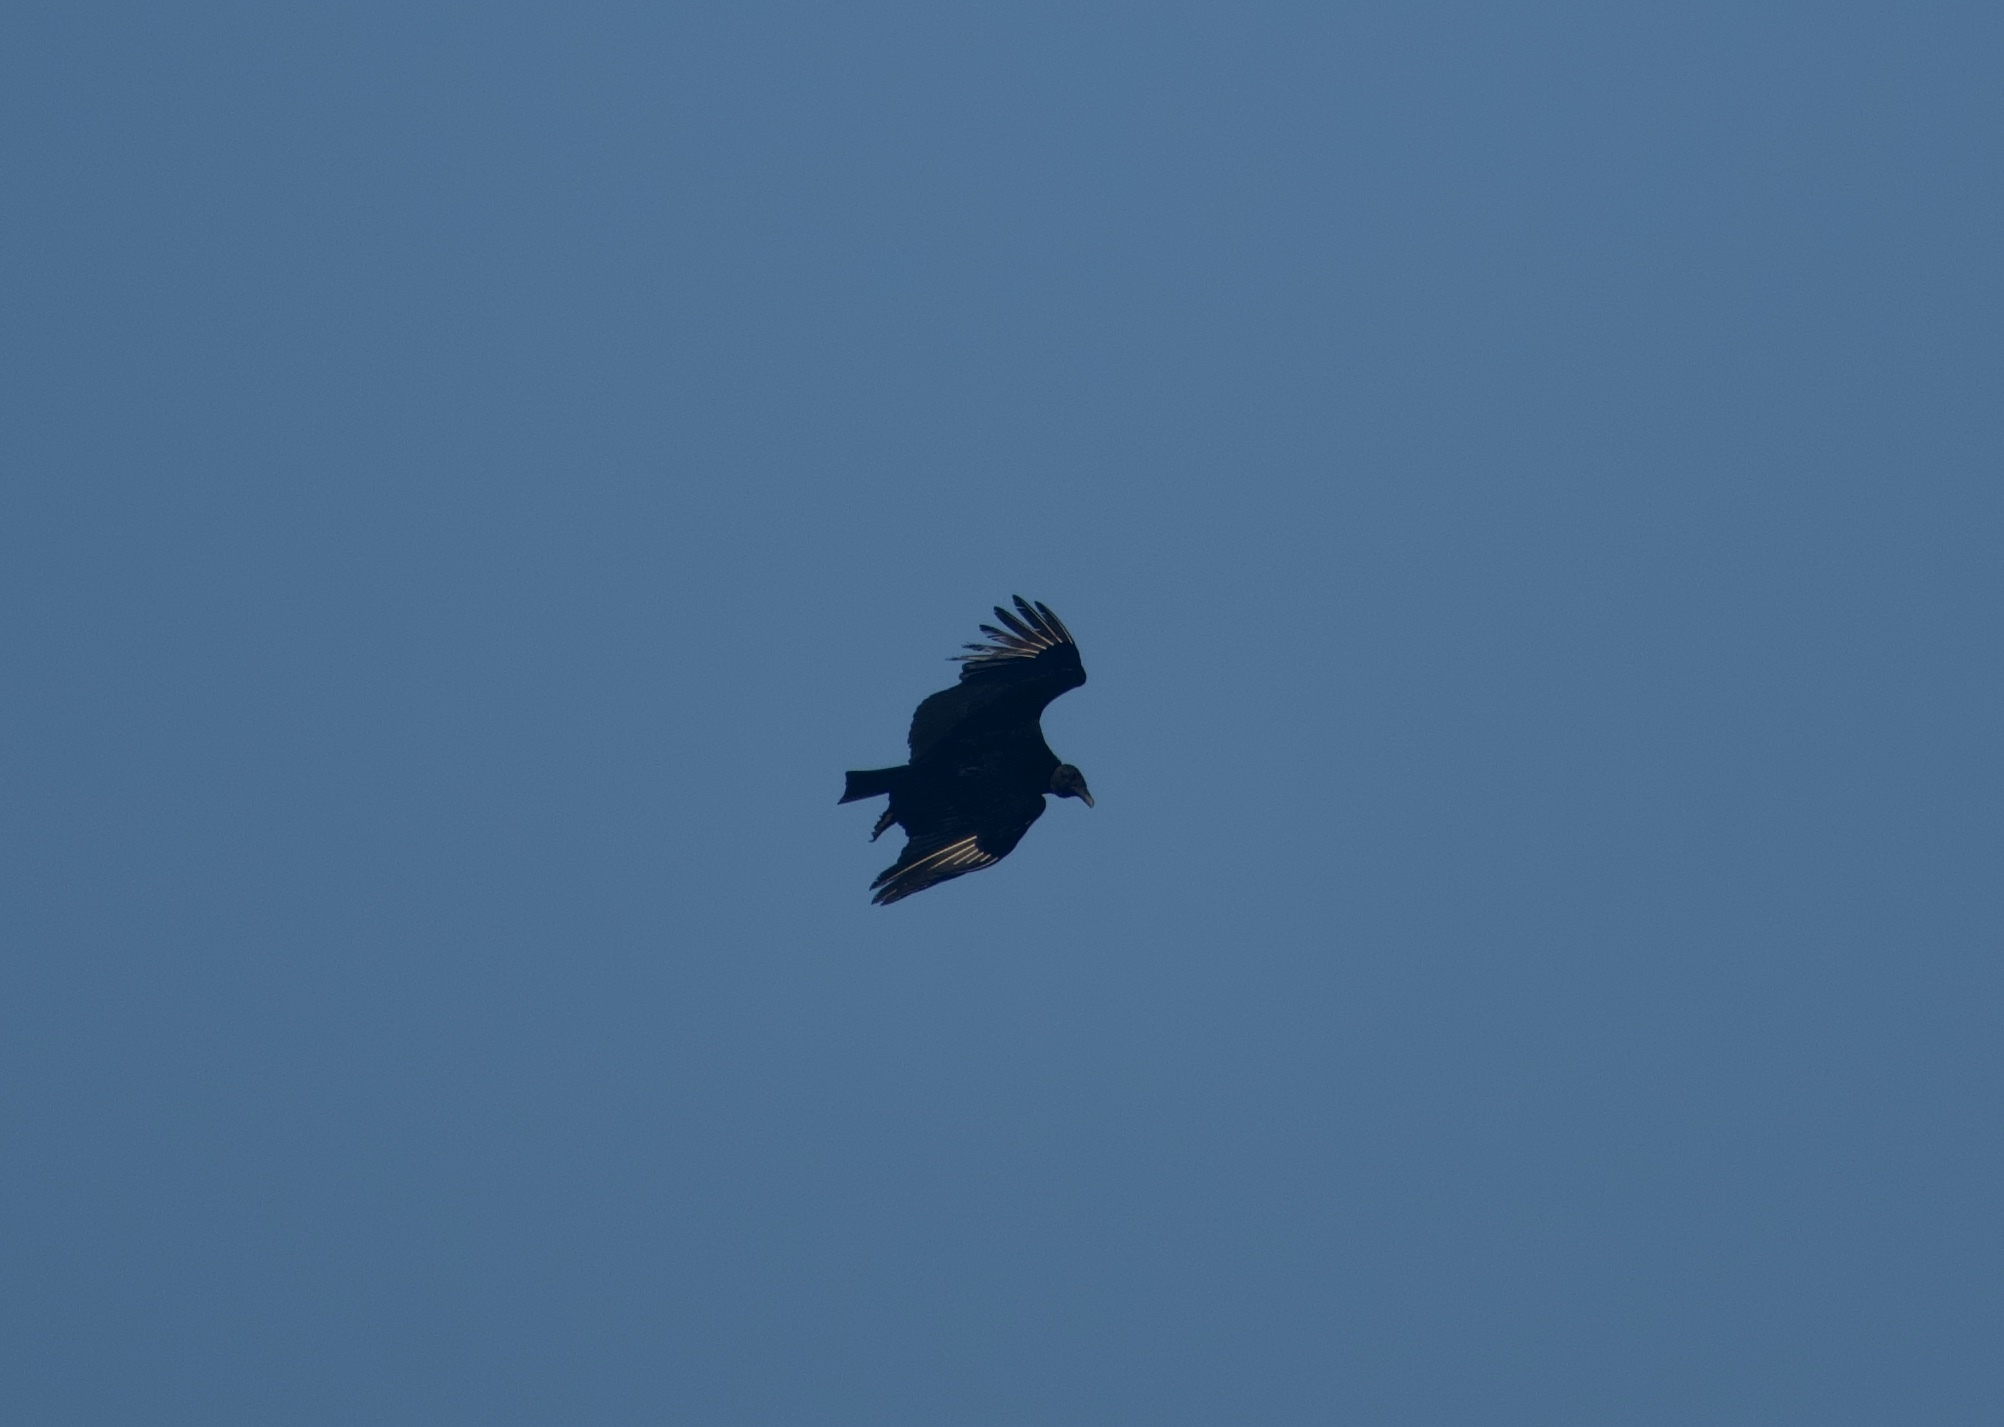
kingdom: Animalia
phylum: Chordata
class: Aves
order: Accipitriformes
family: Cathartidae
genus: Coragyps
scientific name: Coragyps atratus
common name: Black vulture
